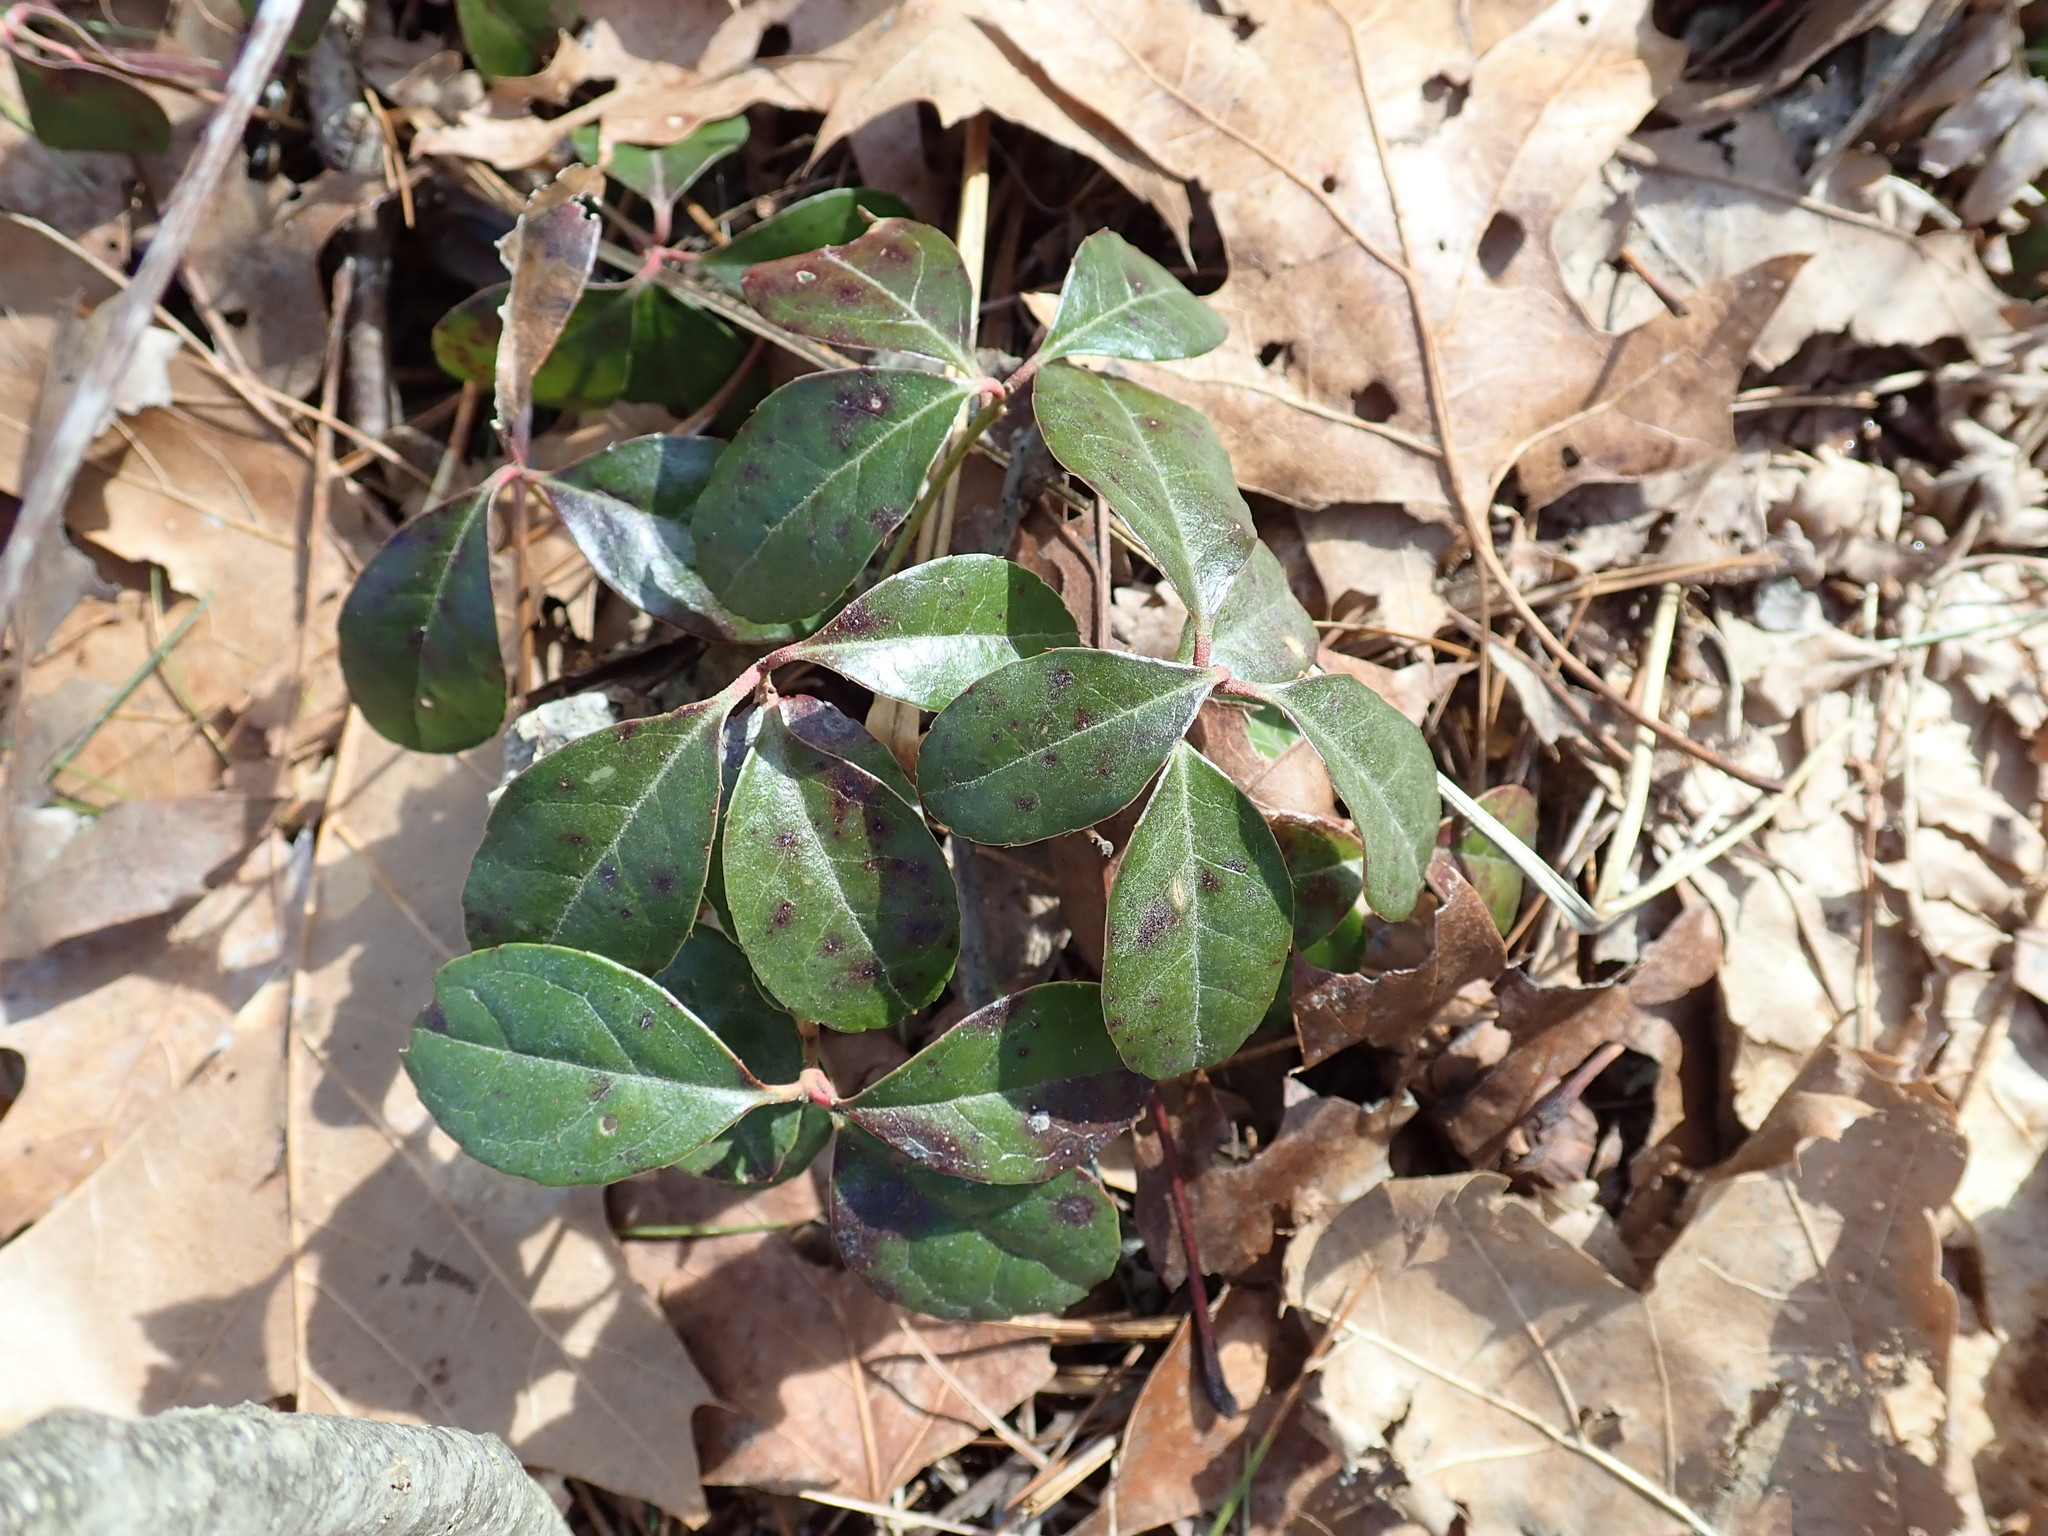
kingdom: Plantae
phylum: Tracheophyta
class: Magnoliopsida
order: Ericales
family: Ericaceae
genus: Gaultheria
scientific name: Gaultheria procumbens
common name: Checkerberry
